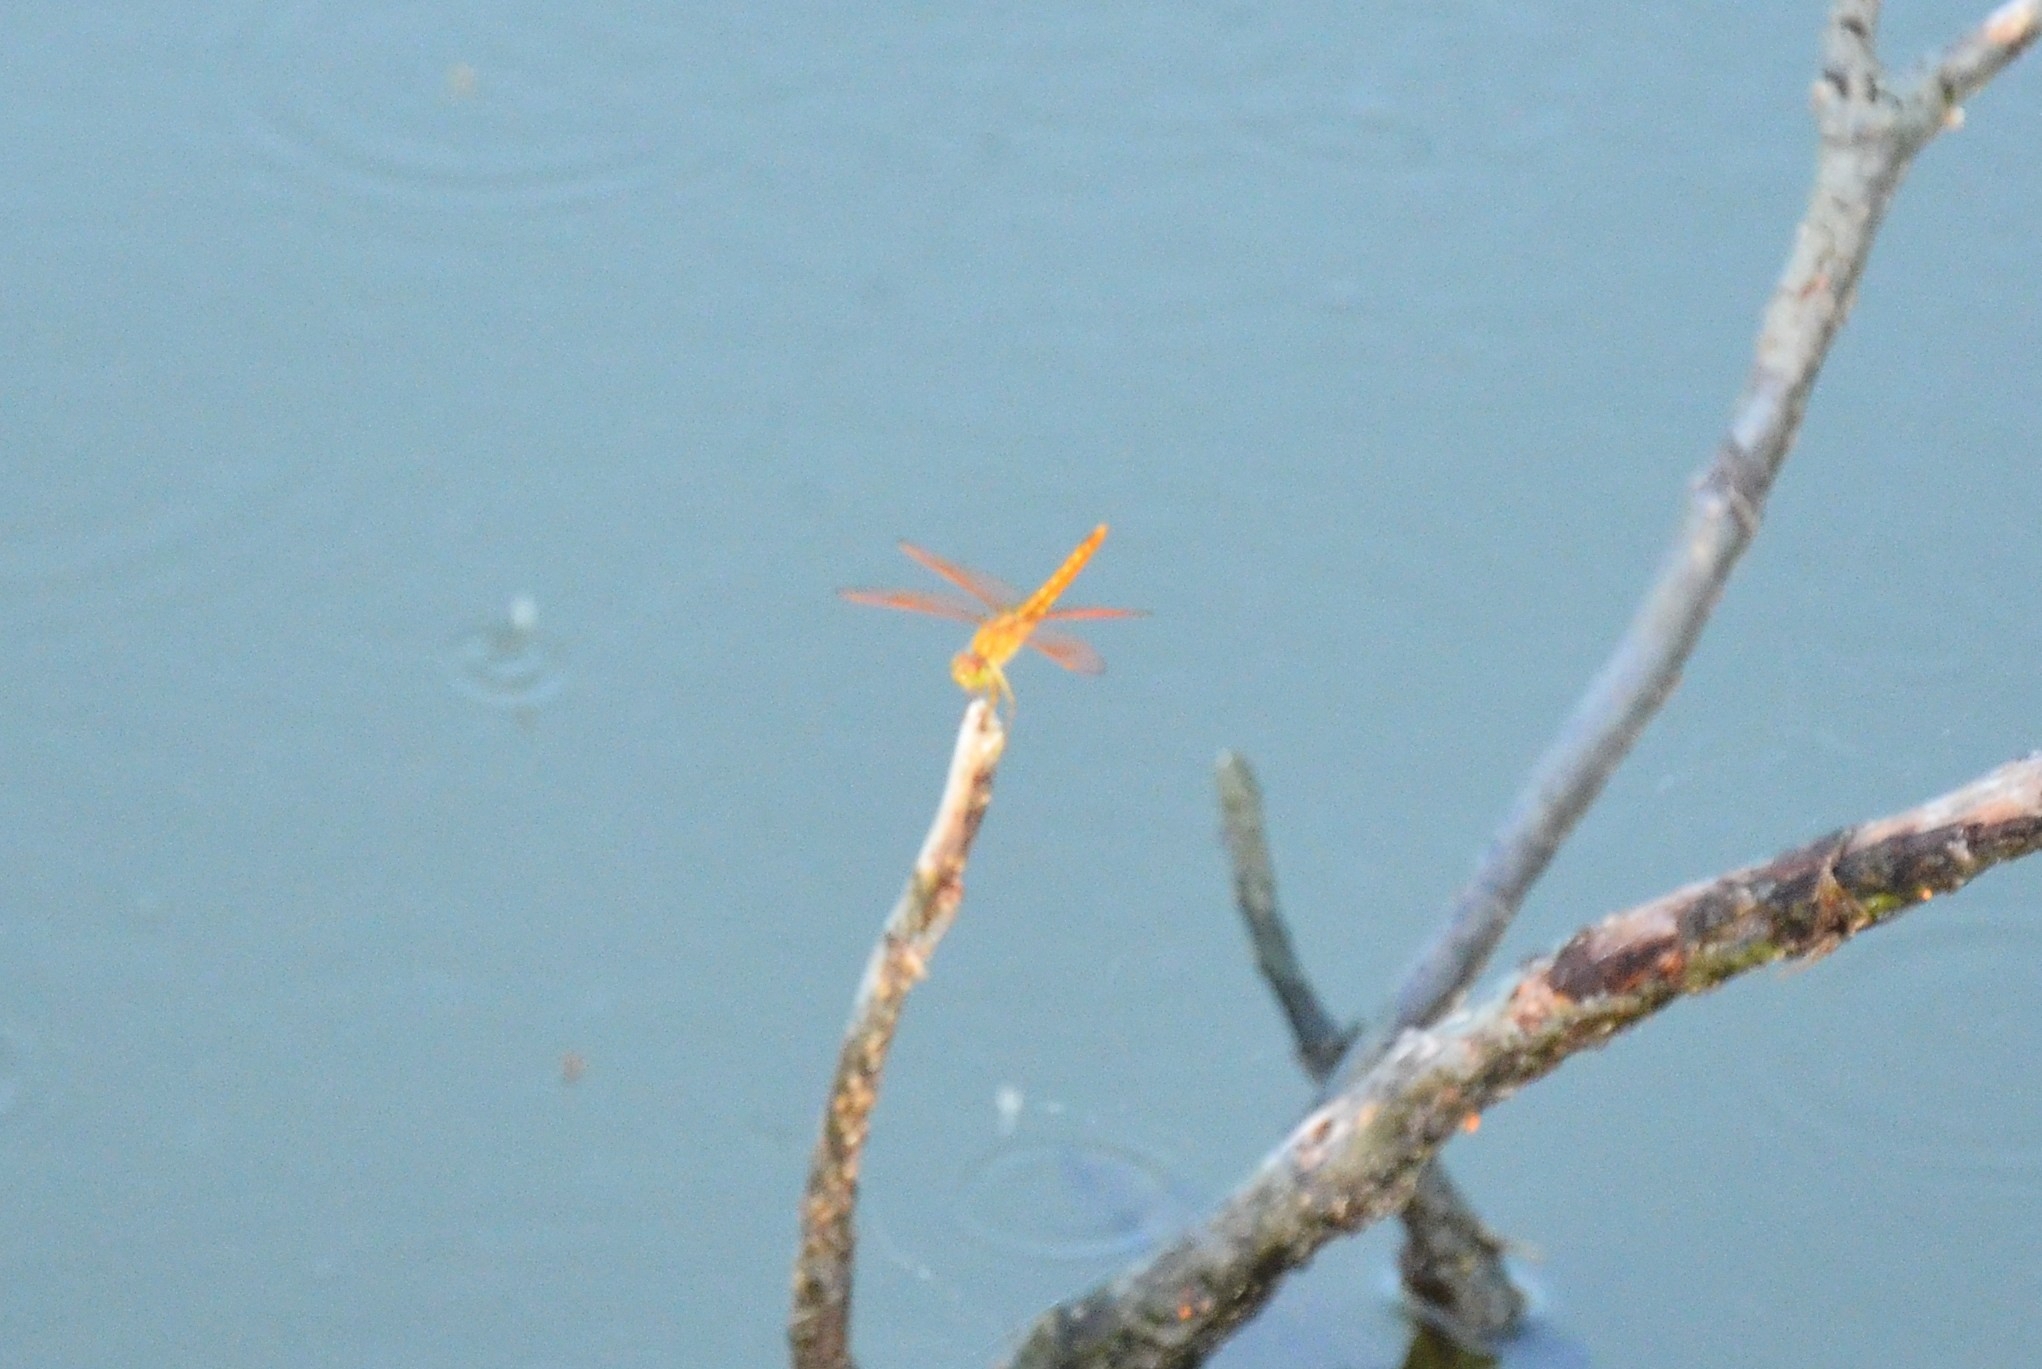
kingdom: Animalia
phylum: Arthropoda
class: Insecta
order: Odonata
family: Libellulidae
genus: Brachythemis
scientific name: Brachythemis contaminata
